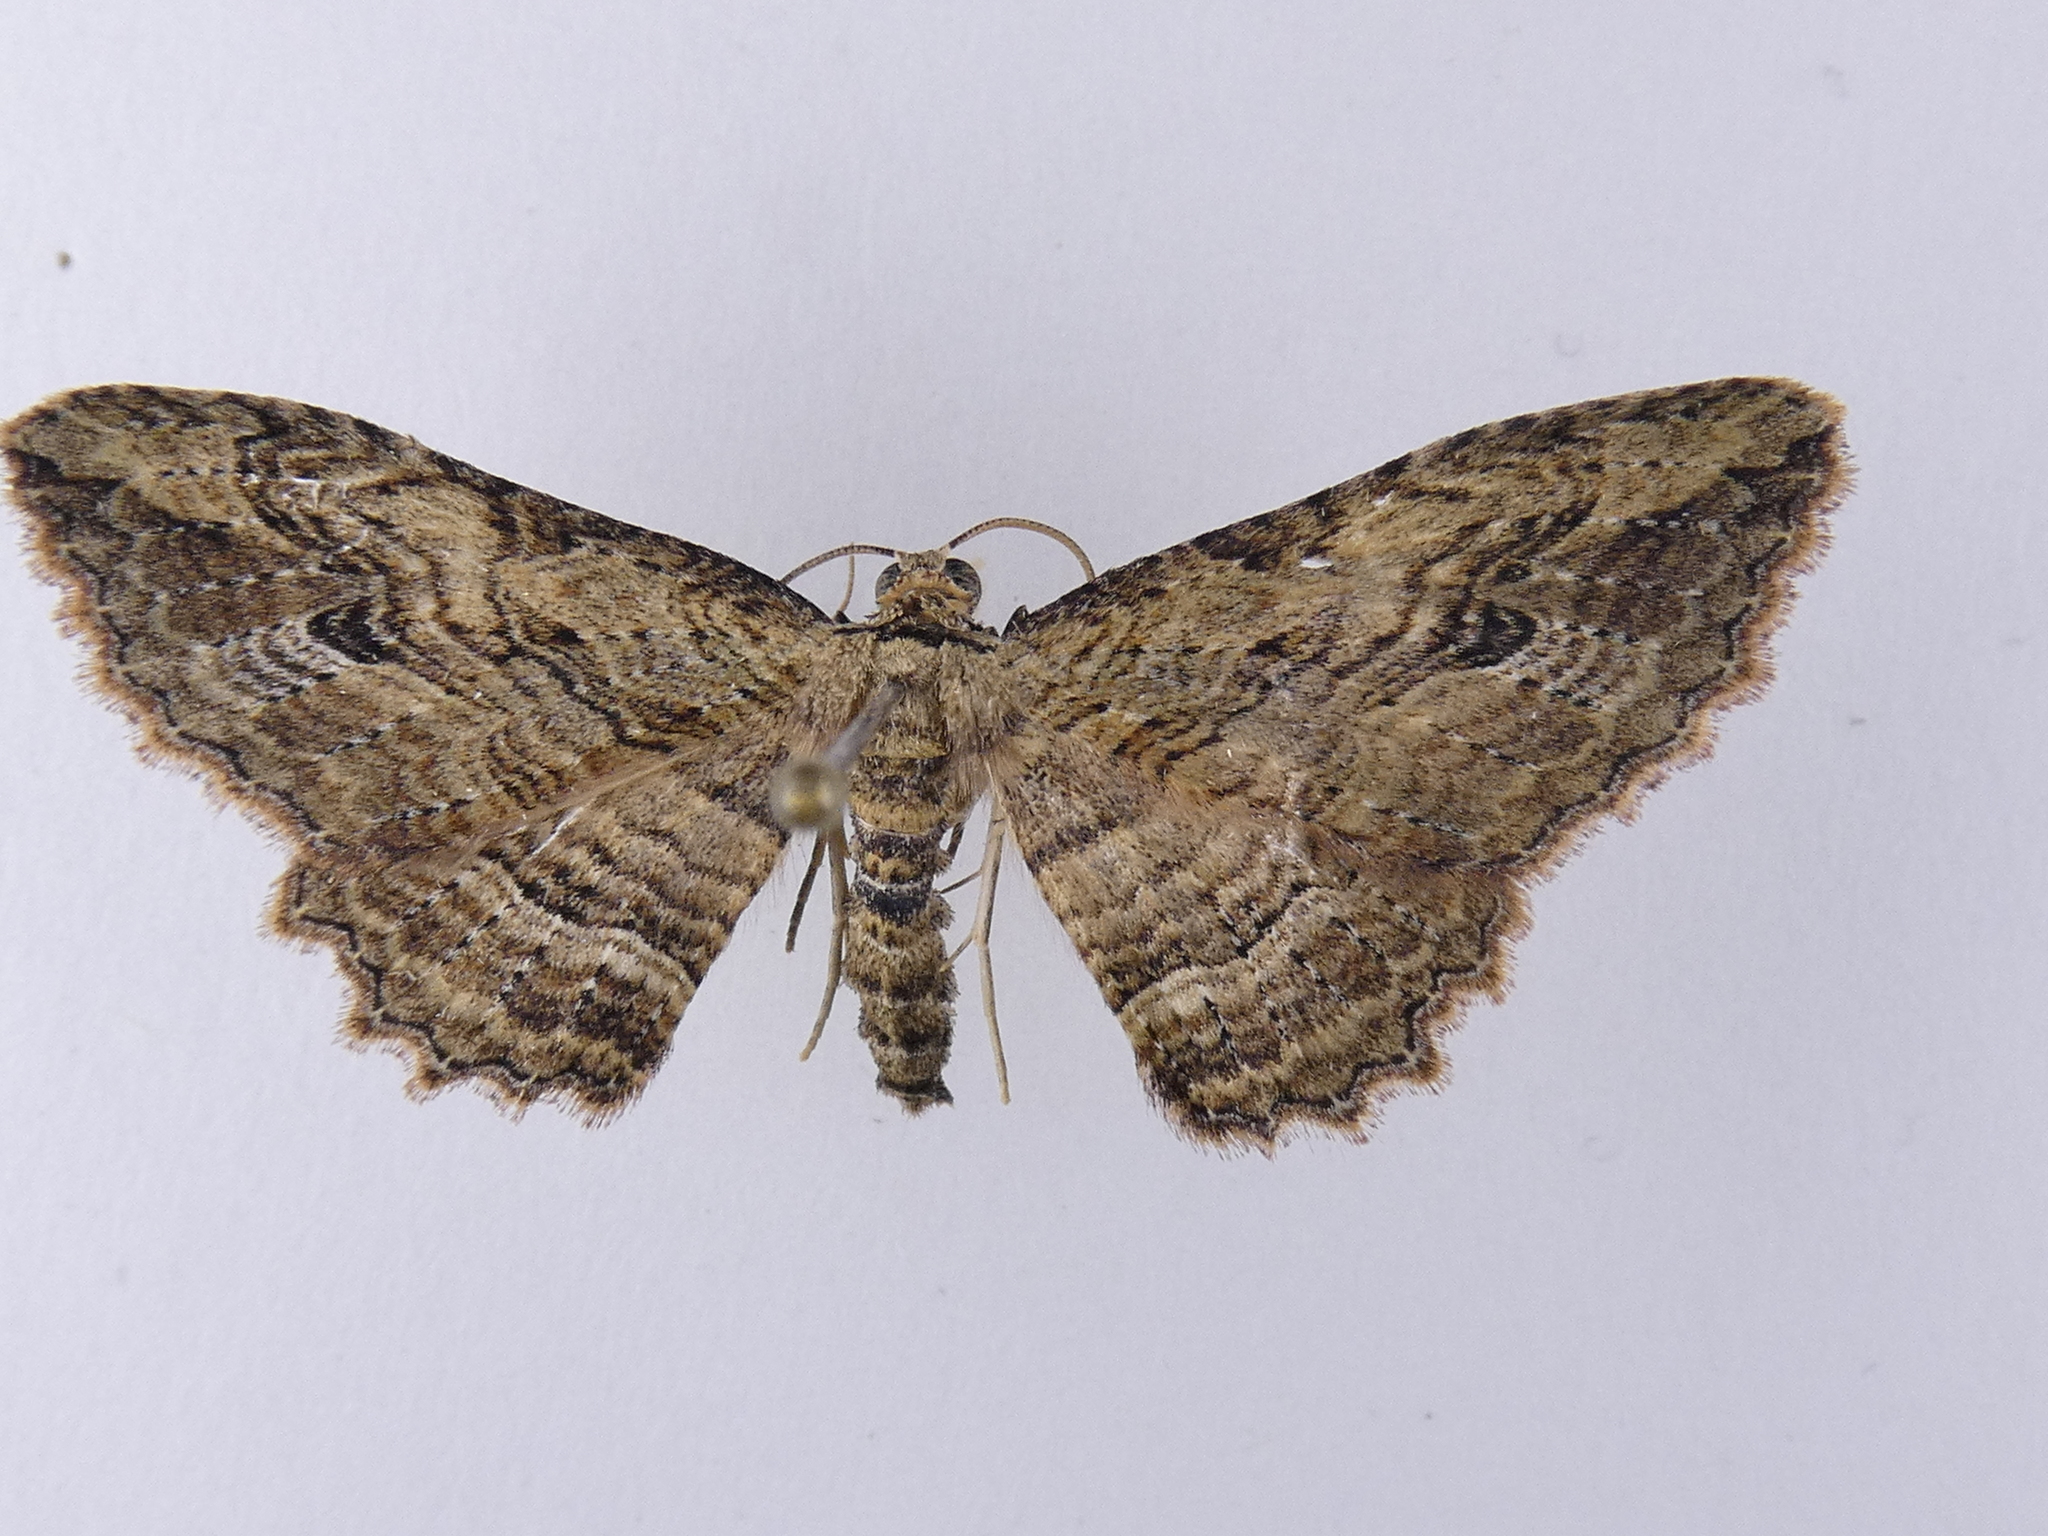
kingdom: Animalia
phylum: Arthropoda
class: Insecta
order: Lepidoptera
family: Geometridae
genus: Austrocidaria
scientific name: Austrocidaria bipartita
